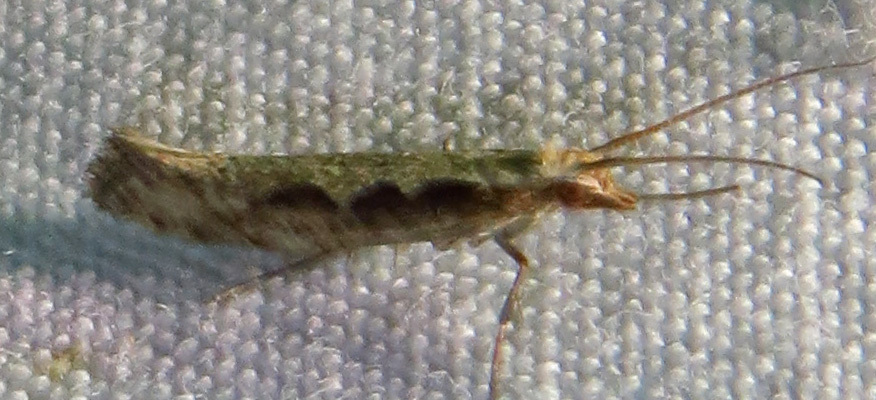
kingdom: Animalia
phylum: Arthropoda
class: Insecta
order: Lepidoptera
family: Plutellidae
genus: Plutella
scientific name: Plutella xylostella
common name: Diamond-back moth
